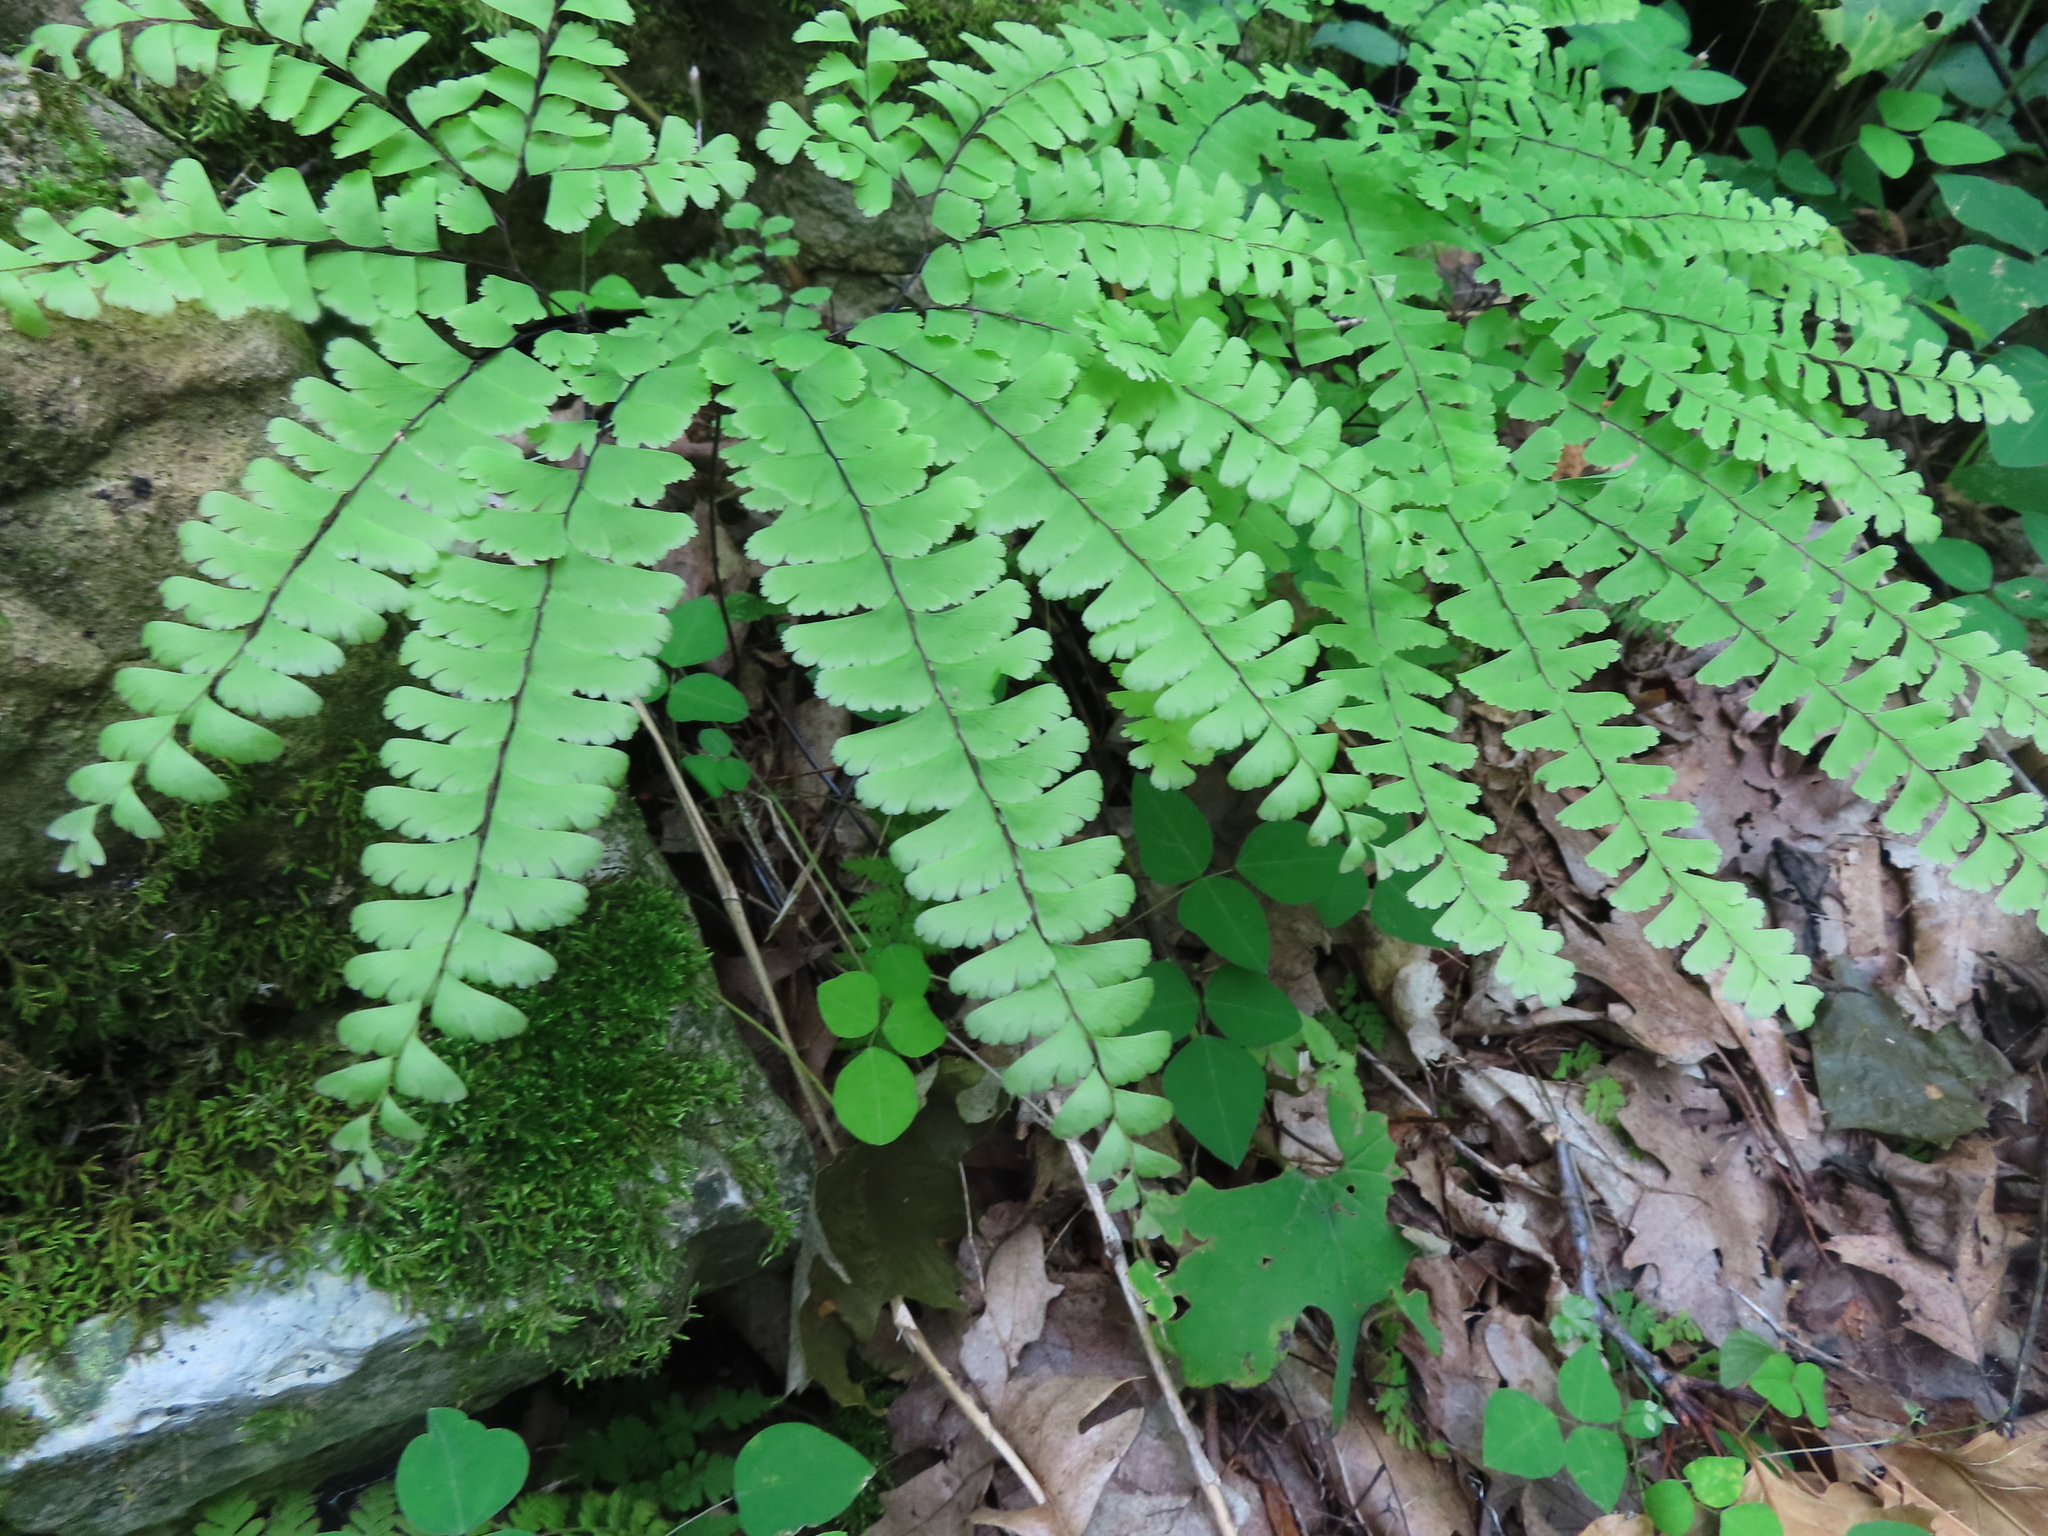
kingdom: Plantae
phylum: Tracheophyta
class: Polypodiopsida
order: Polypodiales
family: Pteridaceae
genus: Adiantum
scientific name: Adiantum pedatum
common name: Five-finger fern
